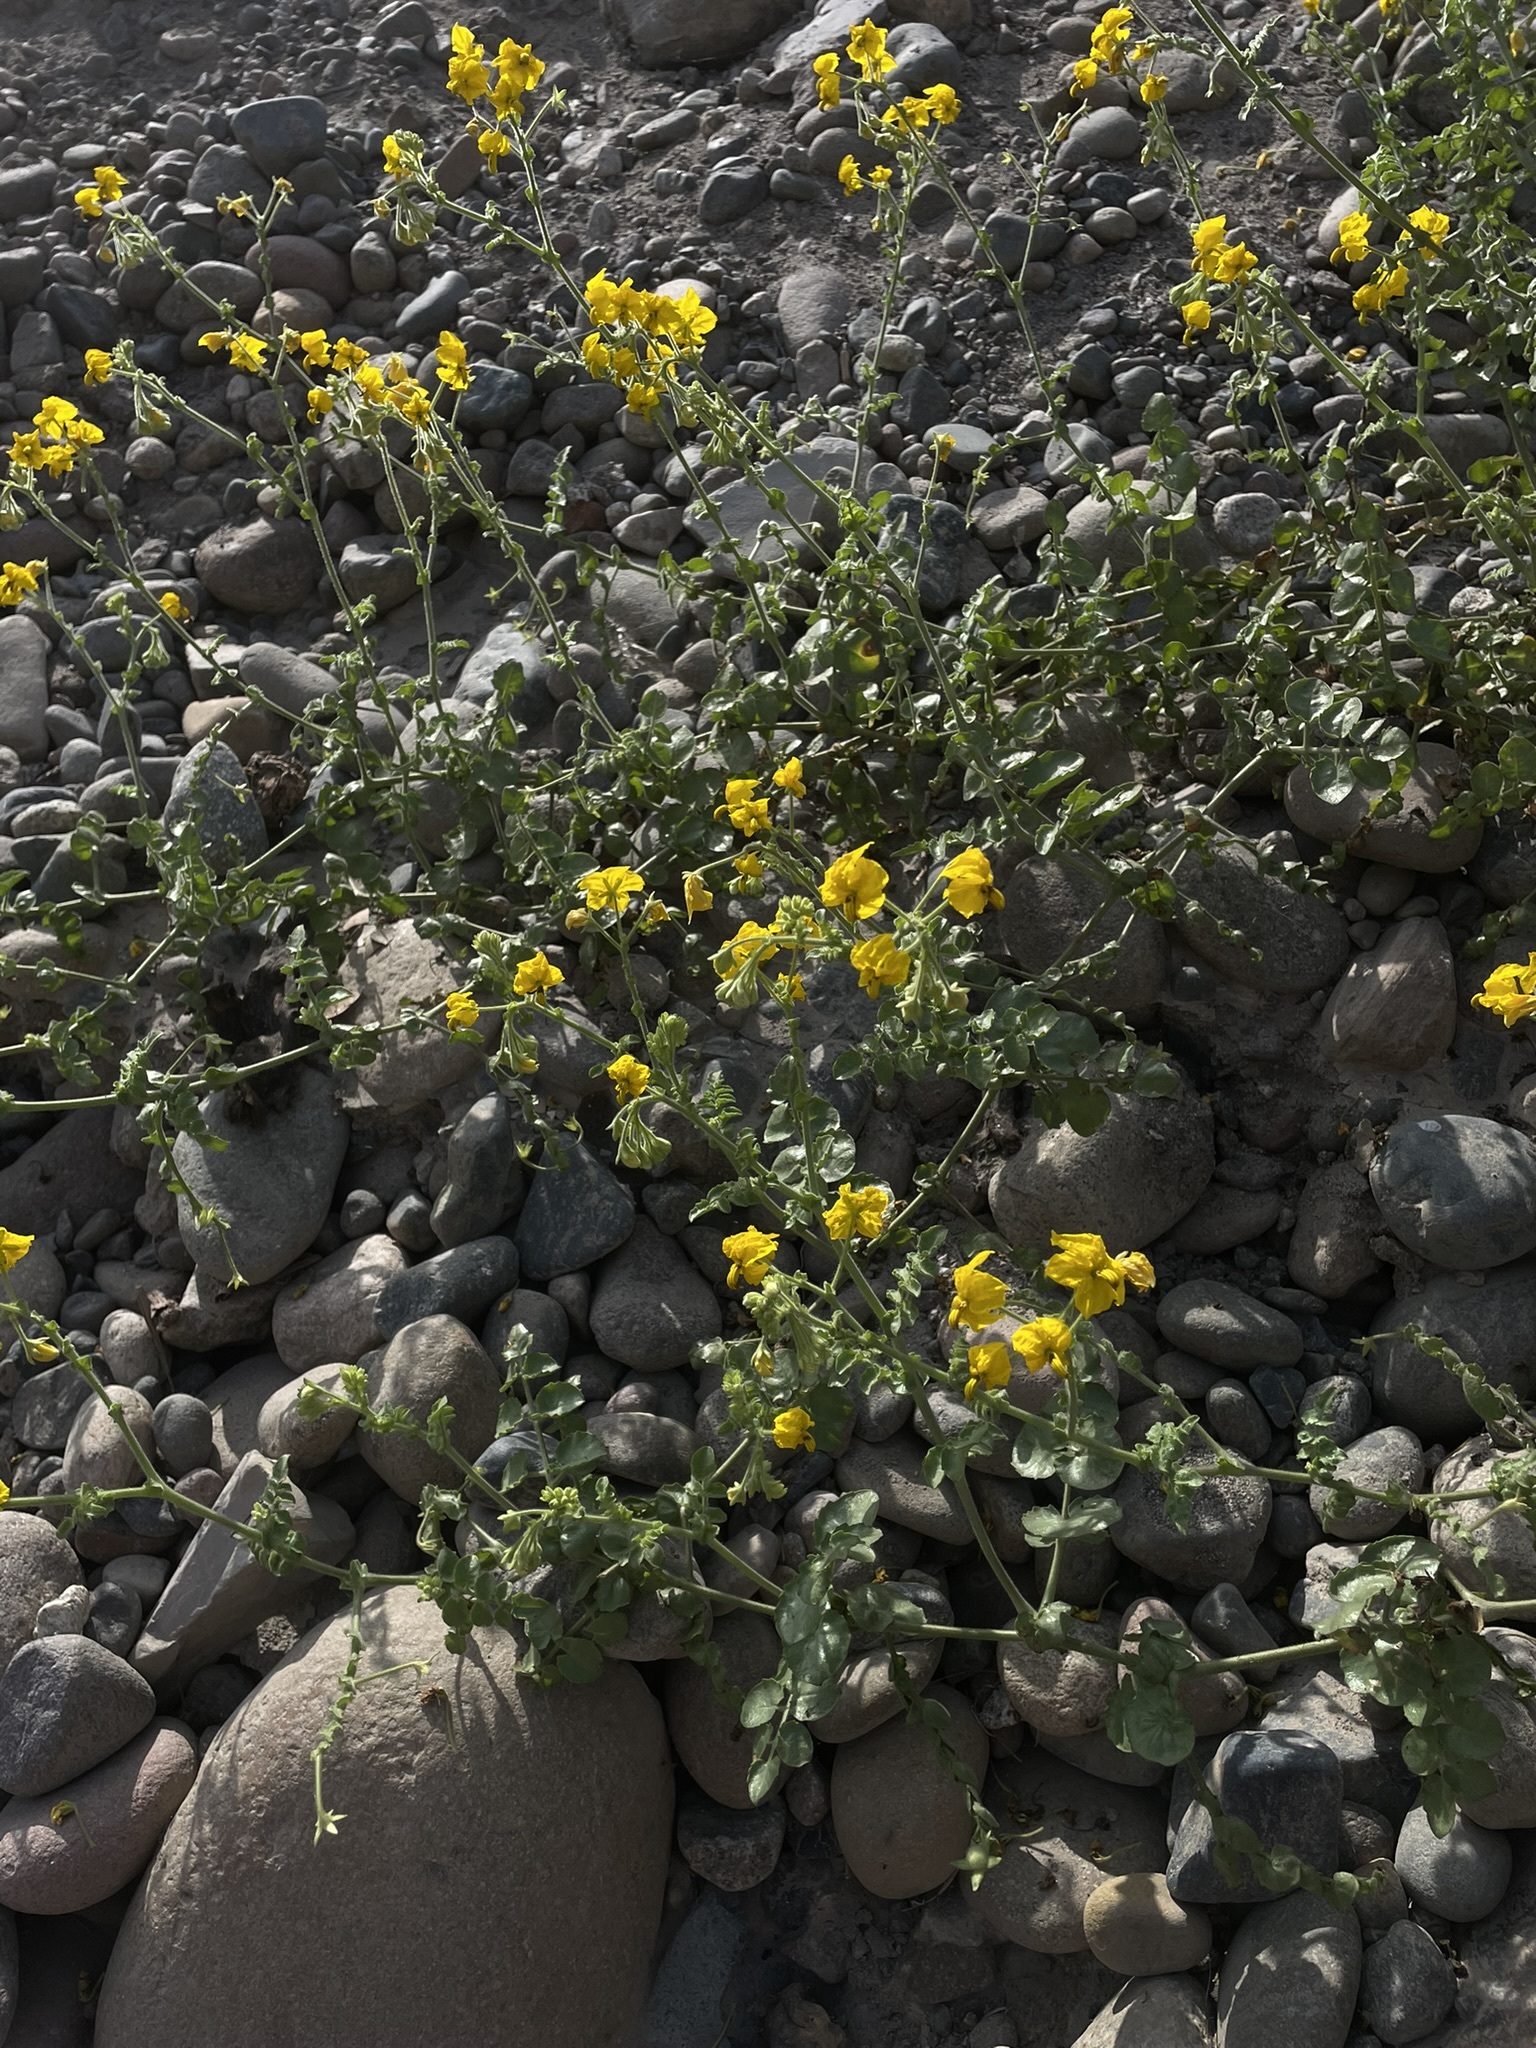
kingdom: Plantae
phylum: Tracheophyta
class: Magnoliopsida
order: Solanales
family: Solanaceae
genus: Solanum
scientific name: Solanum pennellii
